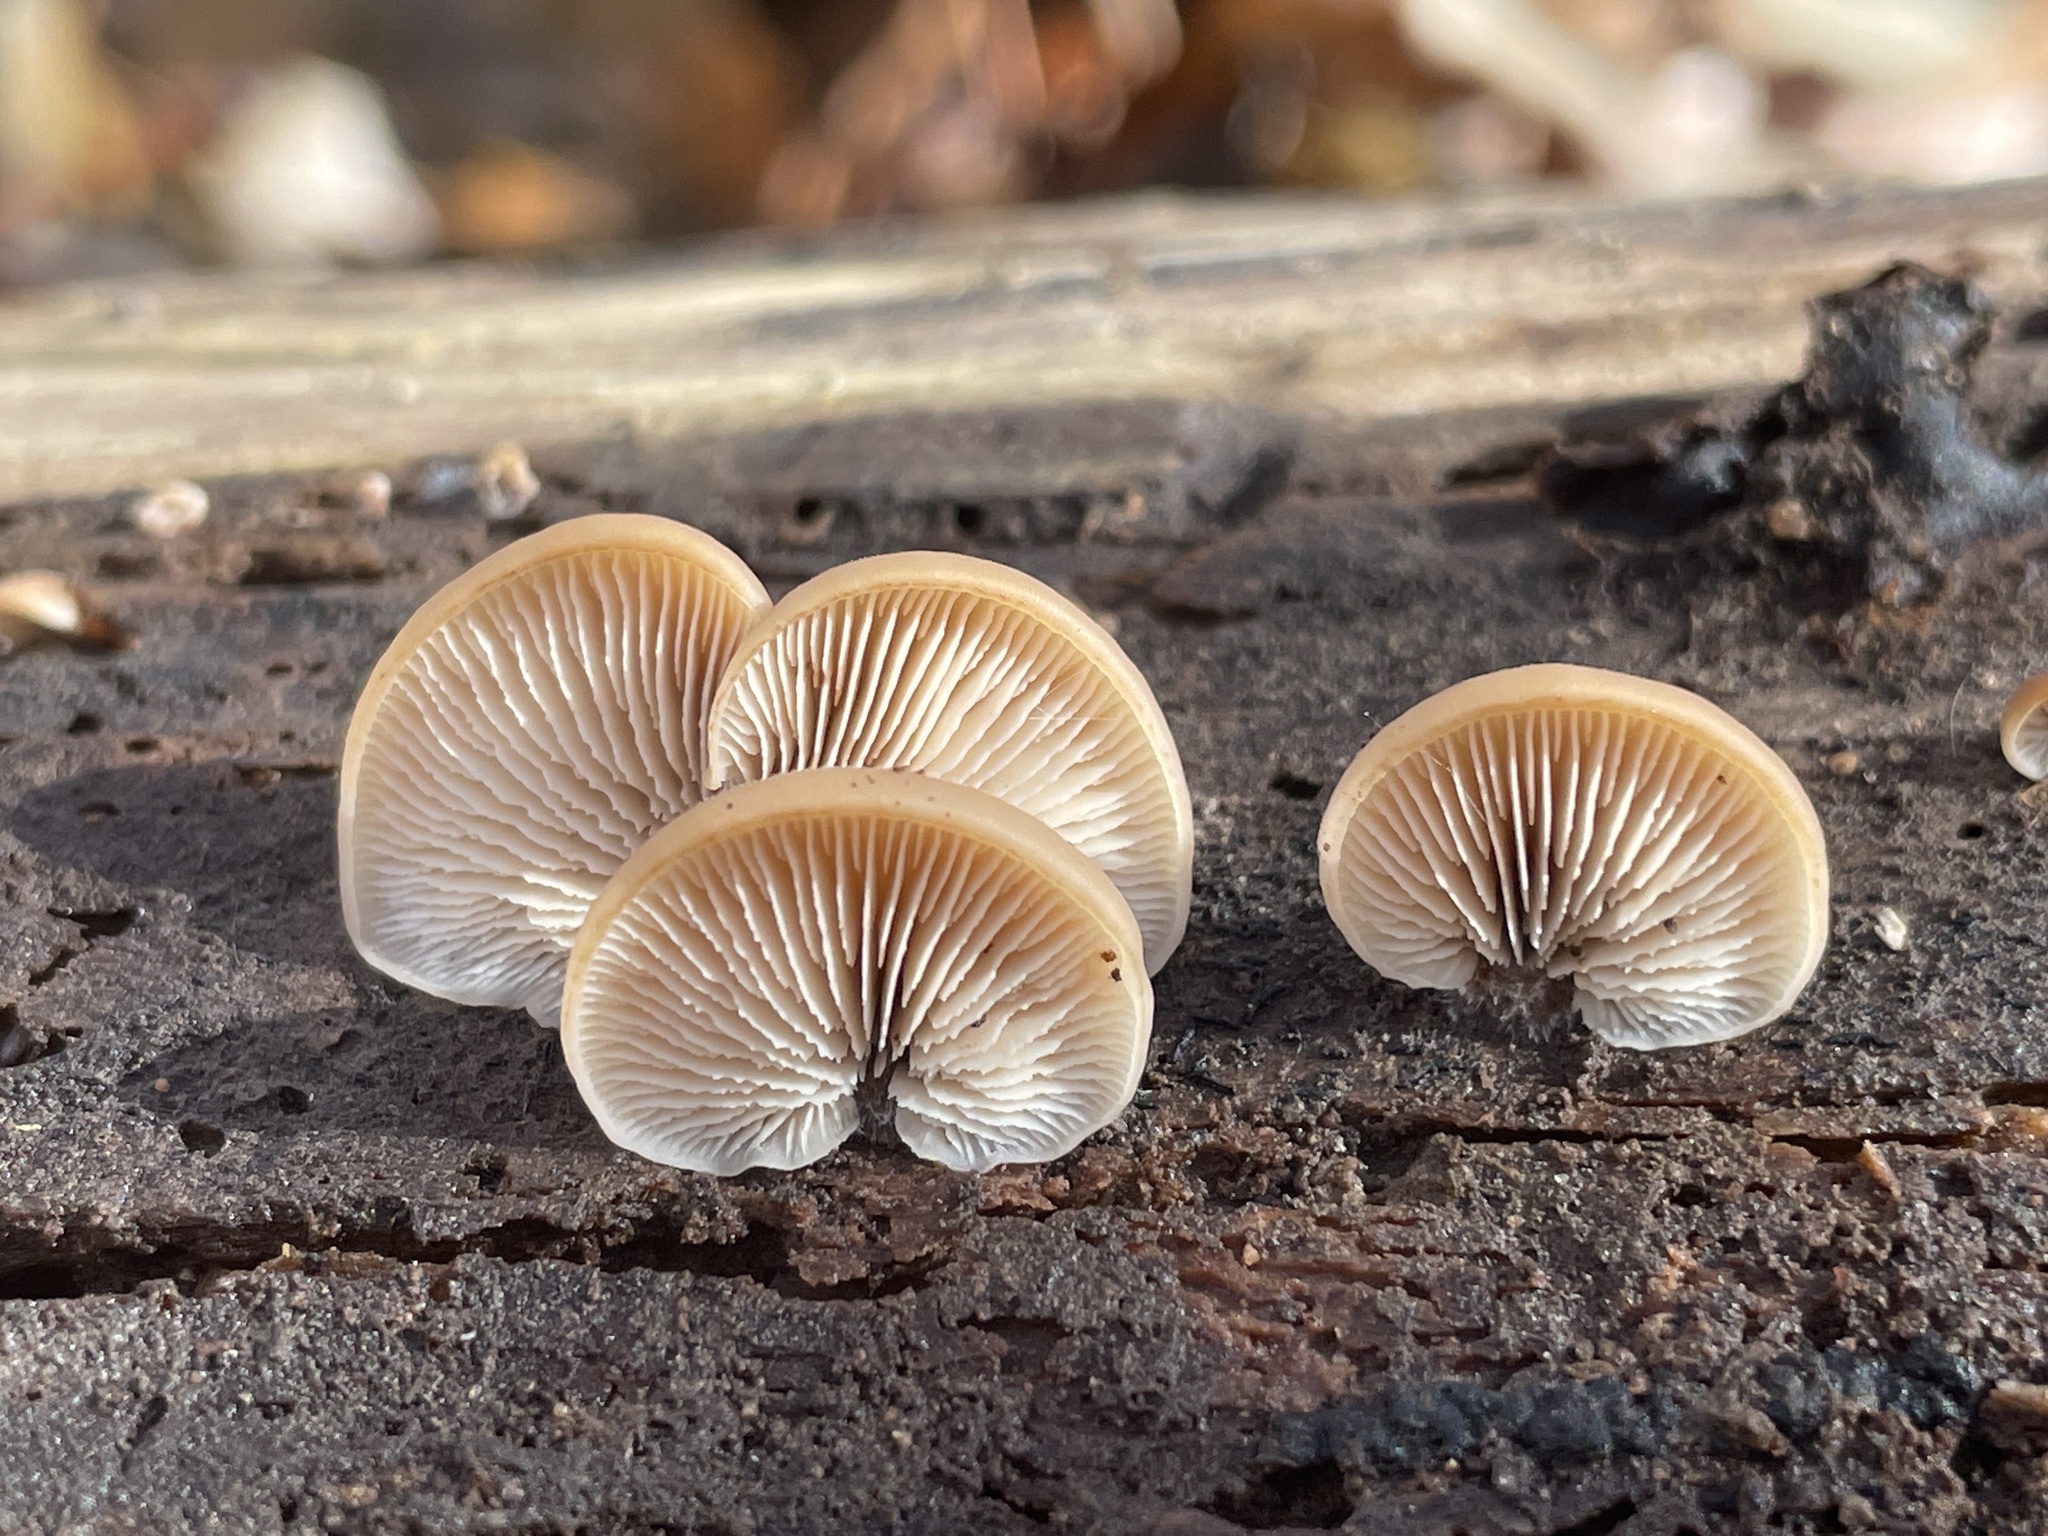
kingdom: Fungi
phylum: Basidiomycota
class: Agaricomycetes
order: Russulales
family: Auriscalpiaceae
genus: Lentinellus
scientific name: Lentinellus ursinus
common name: Bear lentinus
